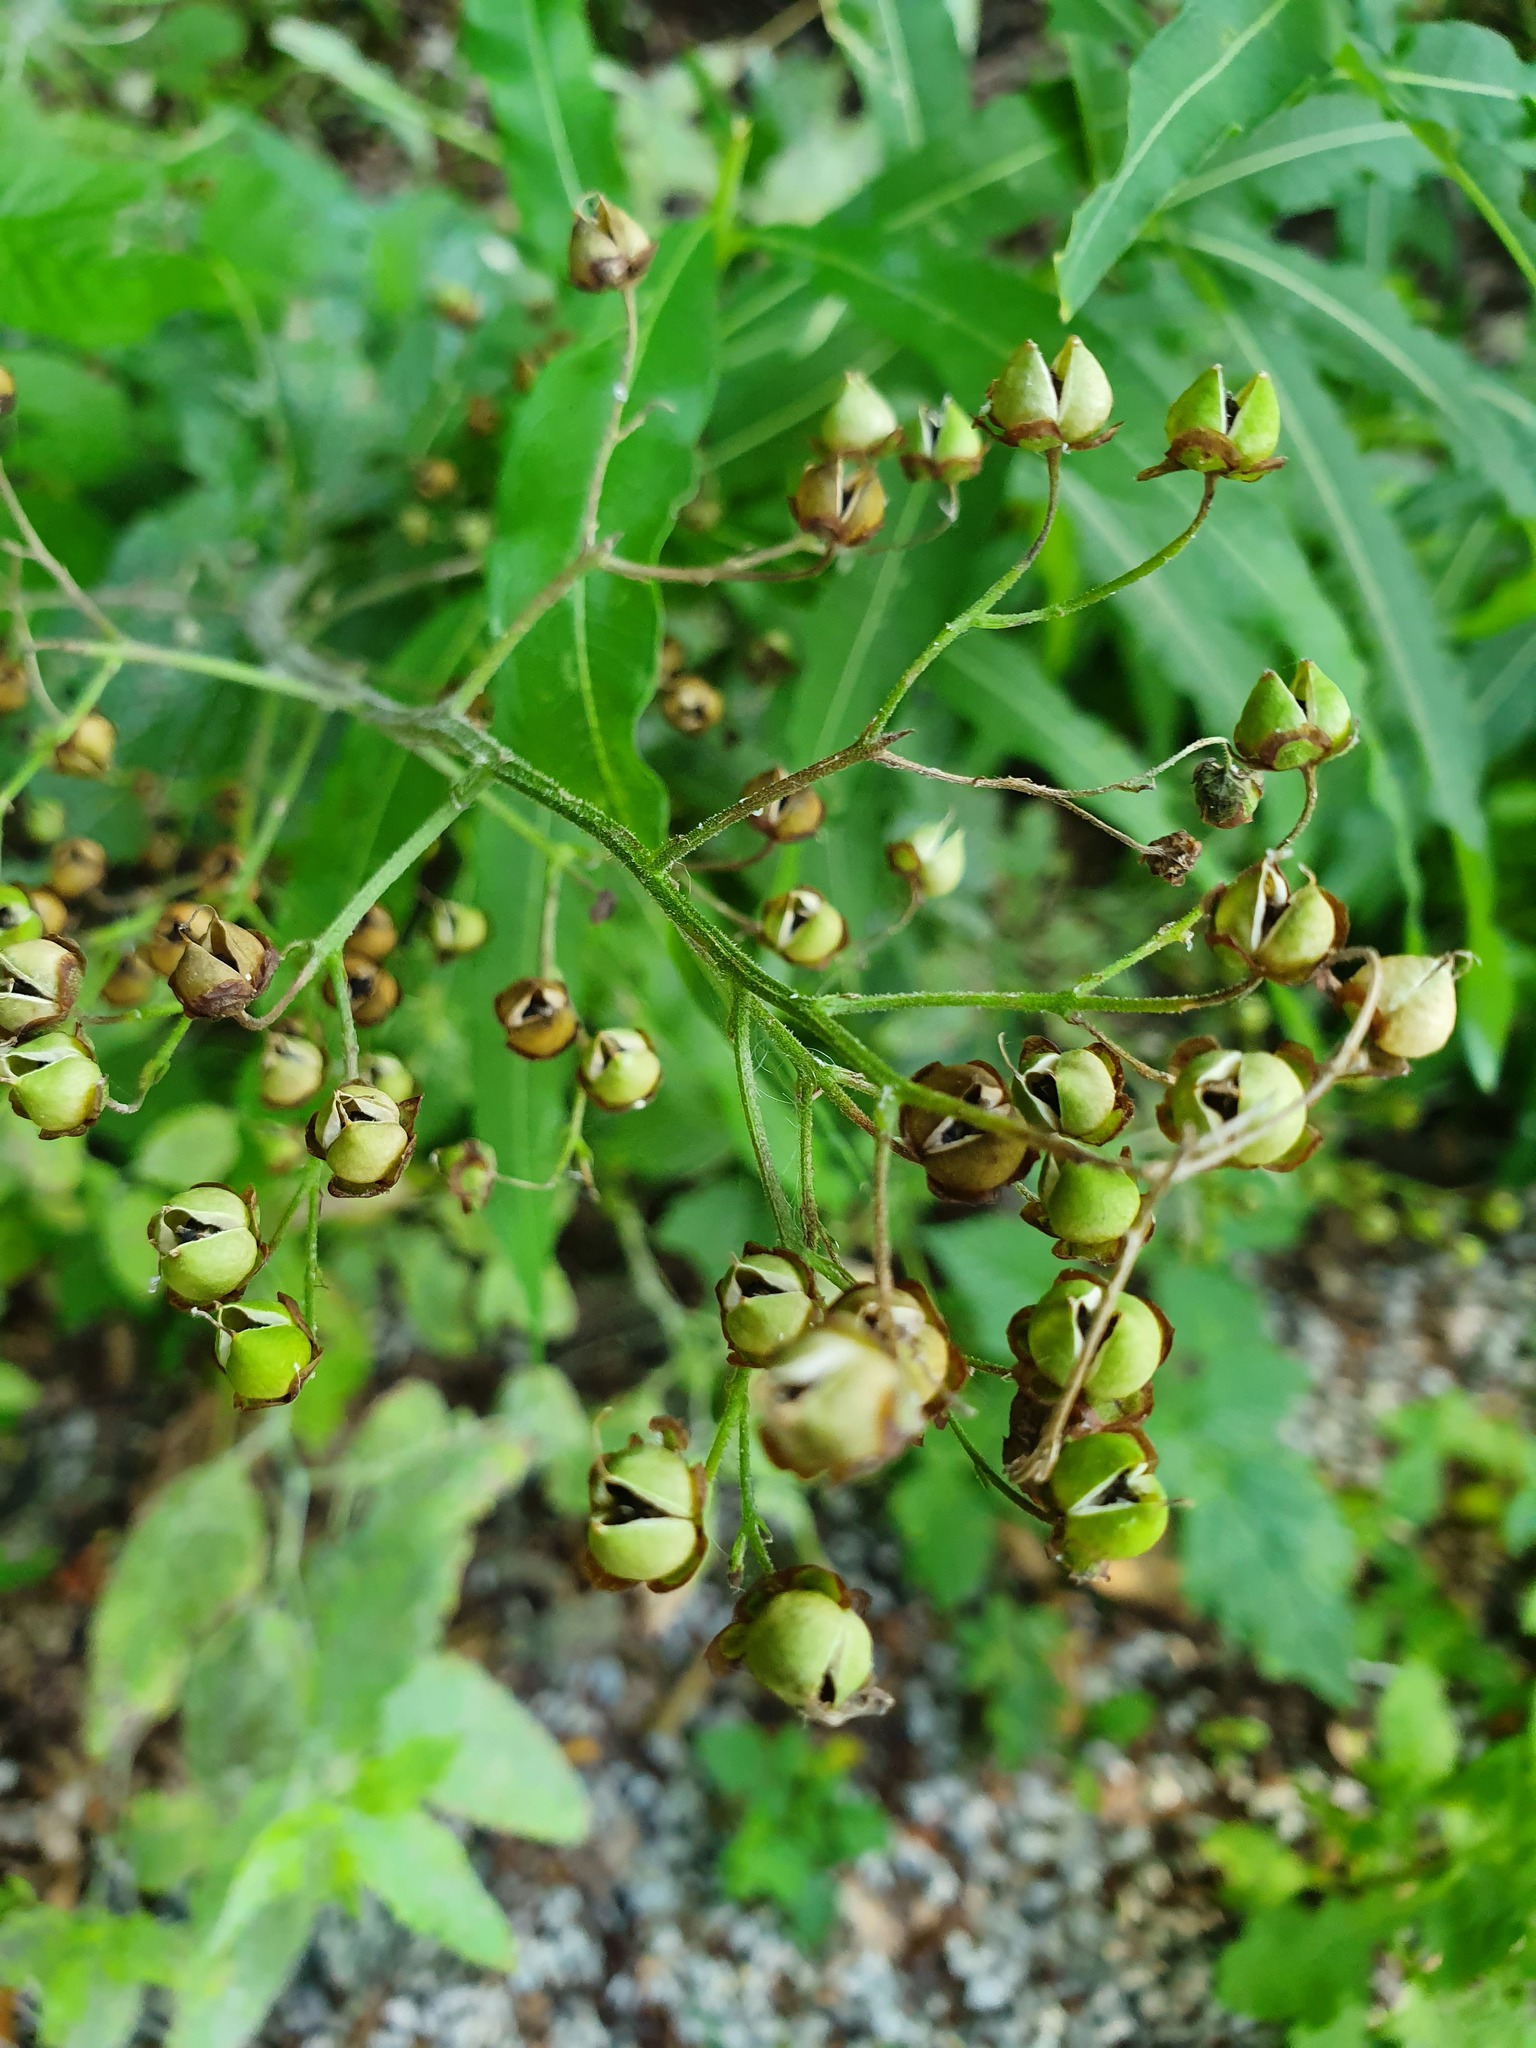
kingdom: Plantae
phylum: Tracheophyta
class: Magnoliopsida
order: Lamiales
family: Scrophulariaceae
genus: Scrophularia
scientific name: Scrophularia nodosa
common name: Common figwort
